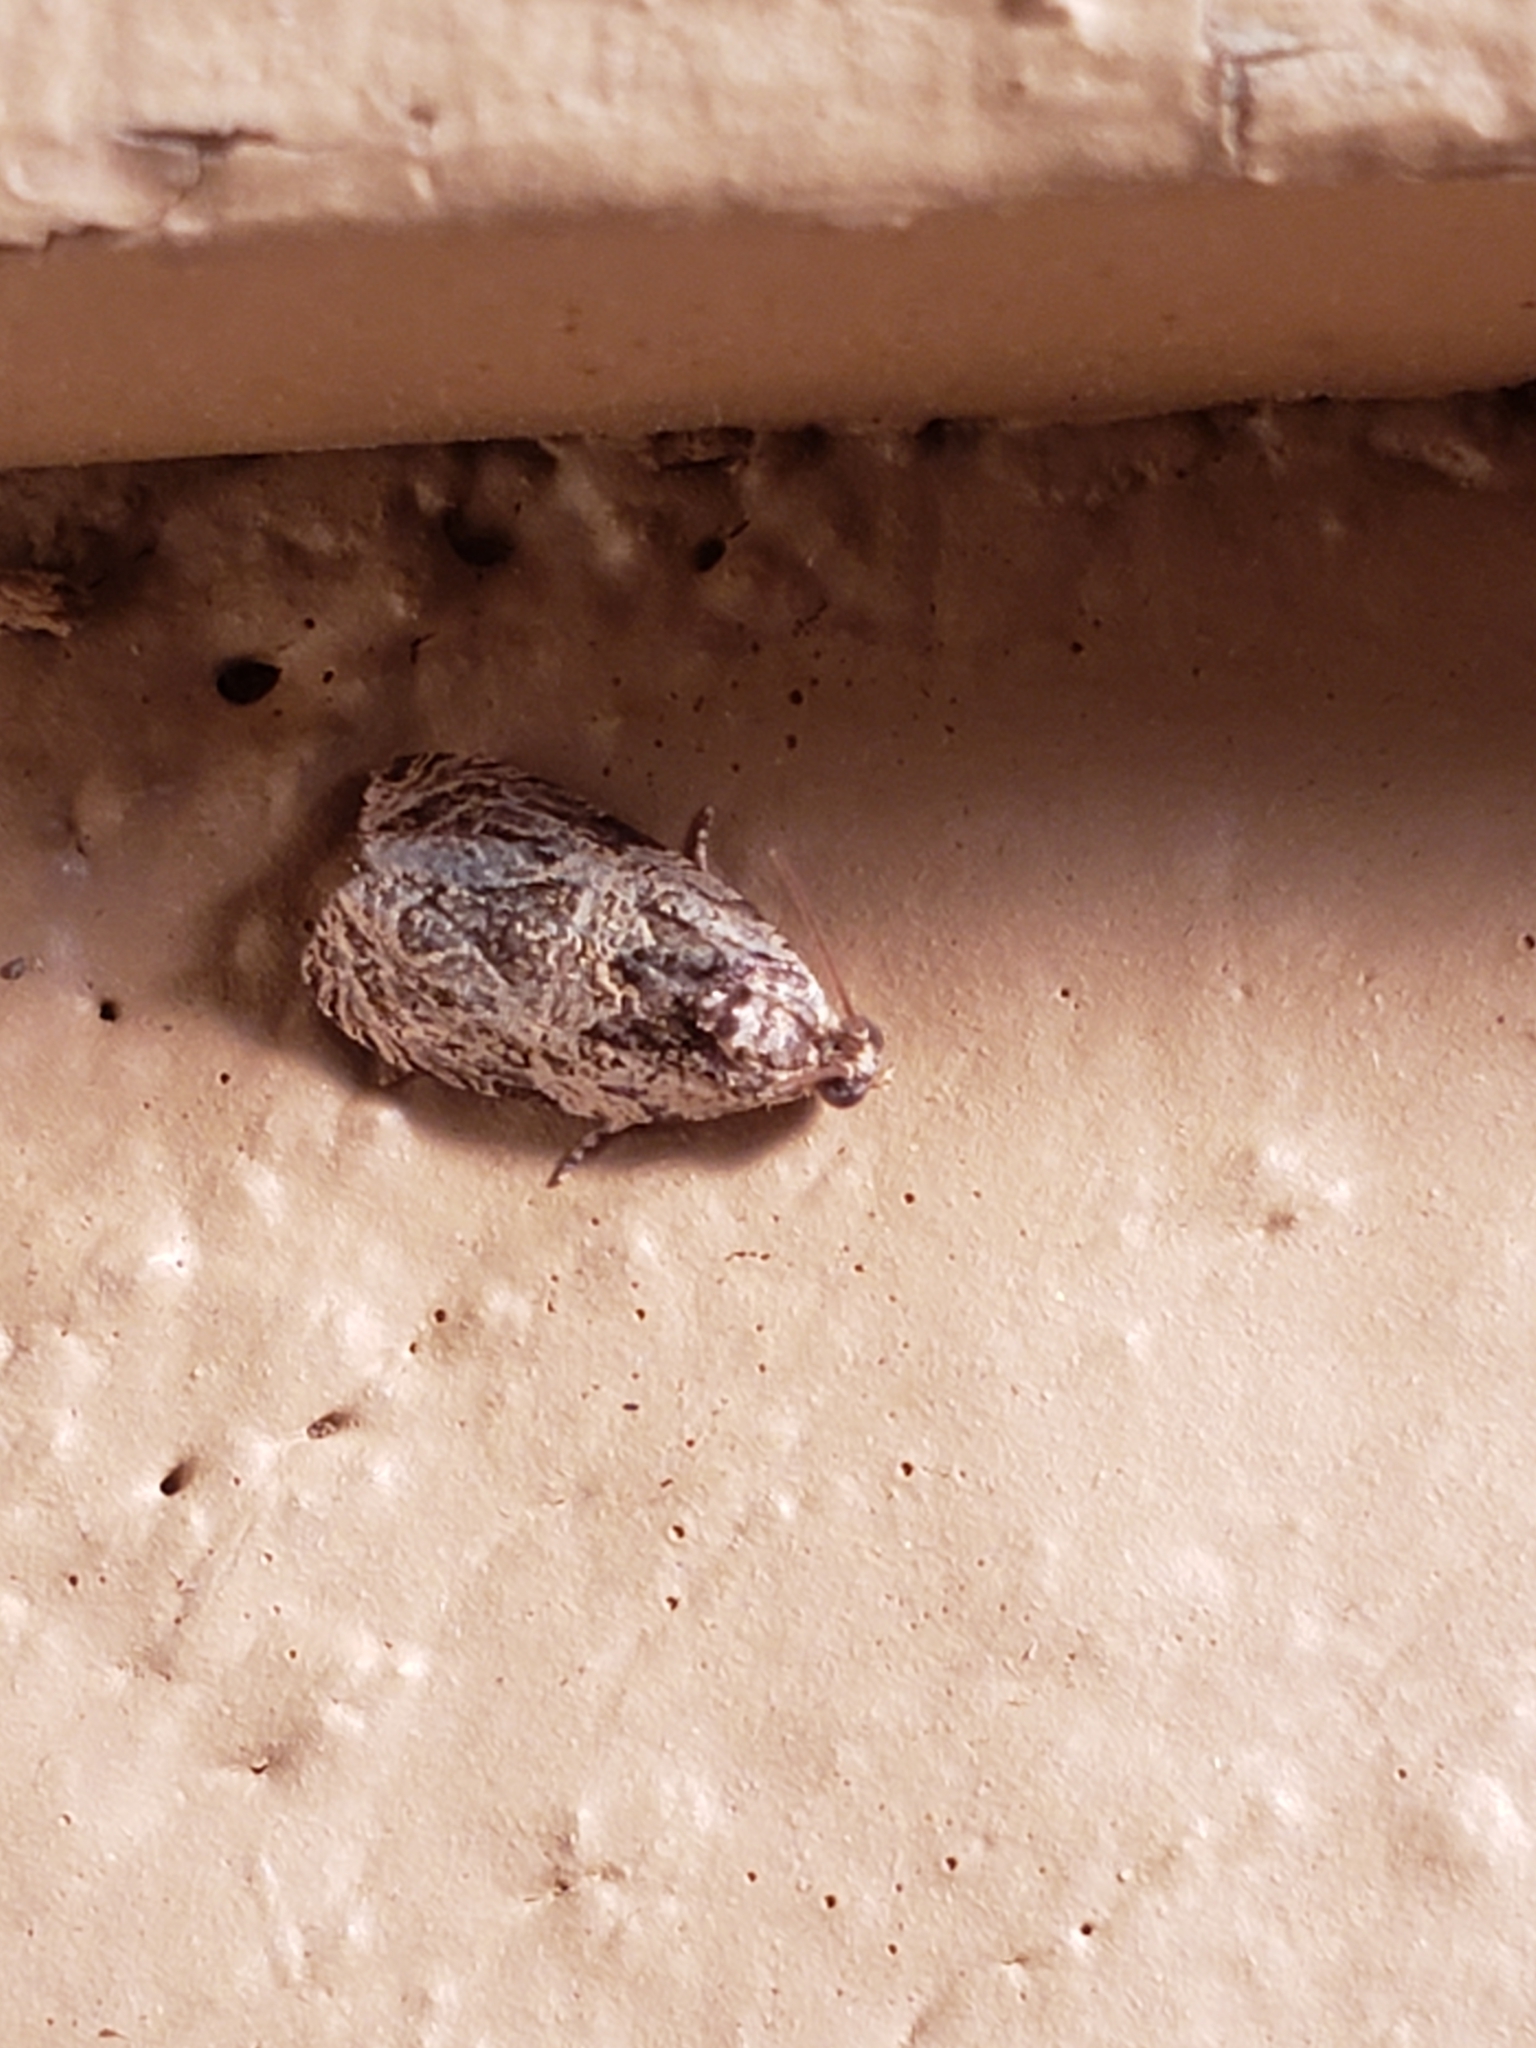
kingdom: Animalia
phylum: Arthropoda
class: Insecta
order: Lepidoptera
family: Tortricidae
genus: Olethreutes
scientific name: Olethreutes concinnana
